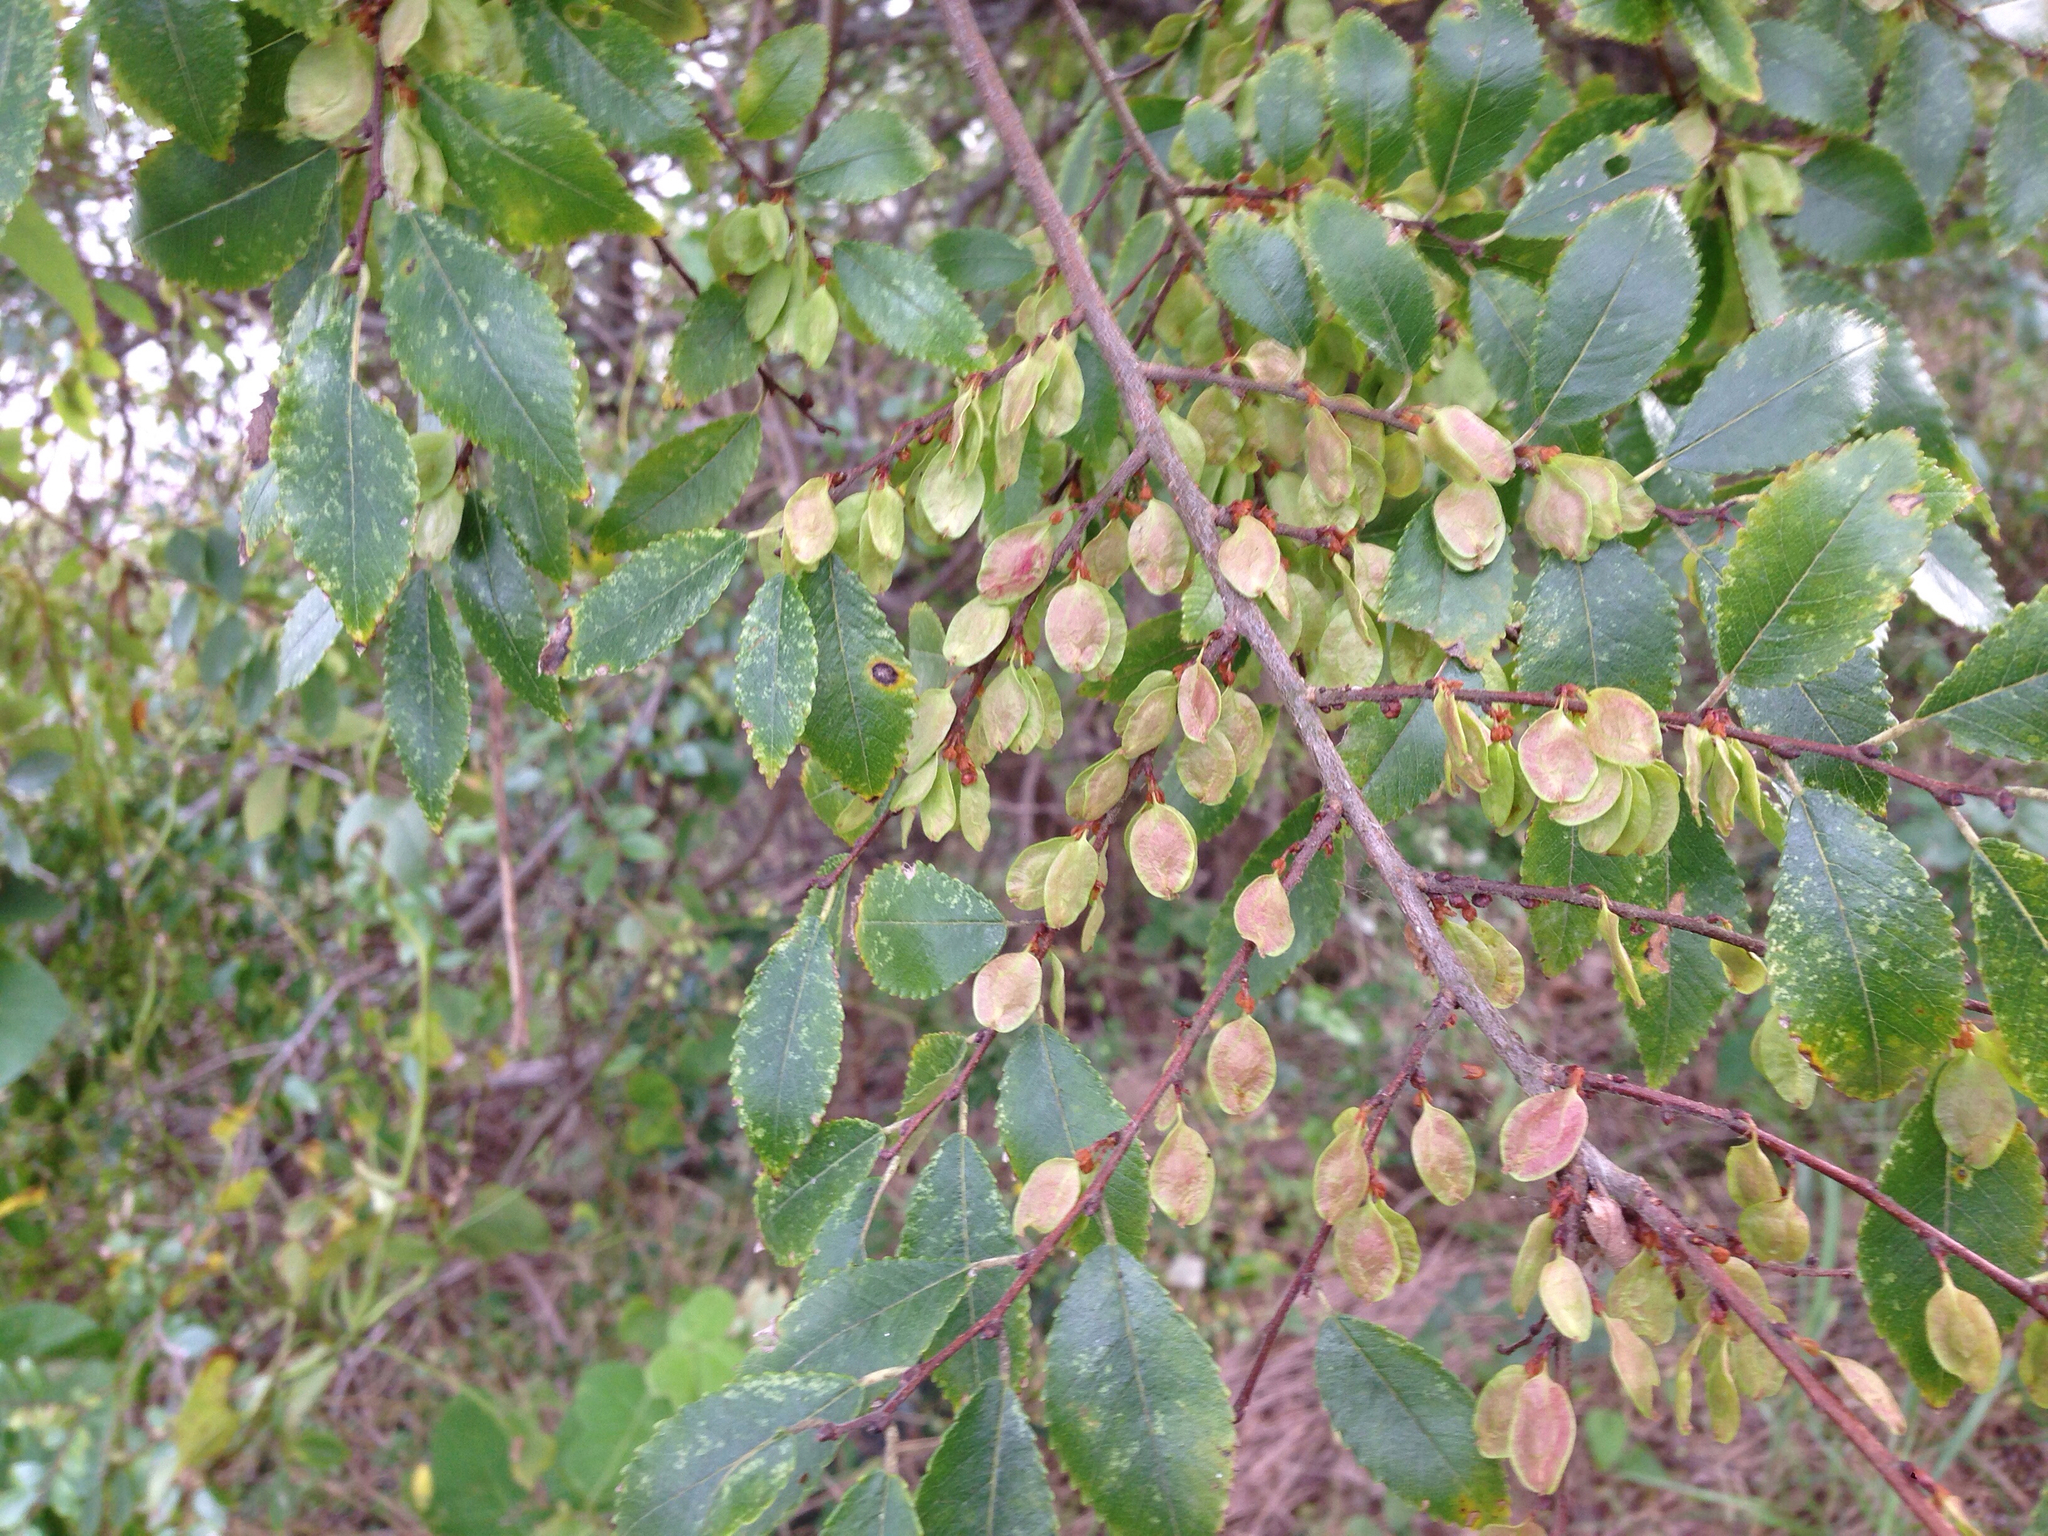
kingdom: Plantae
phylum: Tracheophyta
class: Magnoliopsida
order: Rosales
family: Ulmaceae
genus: Ulmus
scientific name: Ulmus parvifolia
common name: Chinese elm
